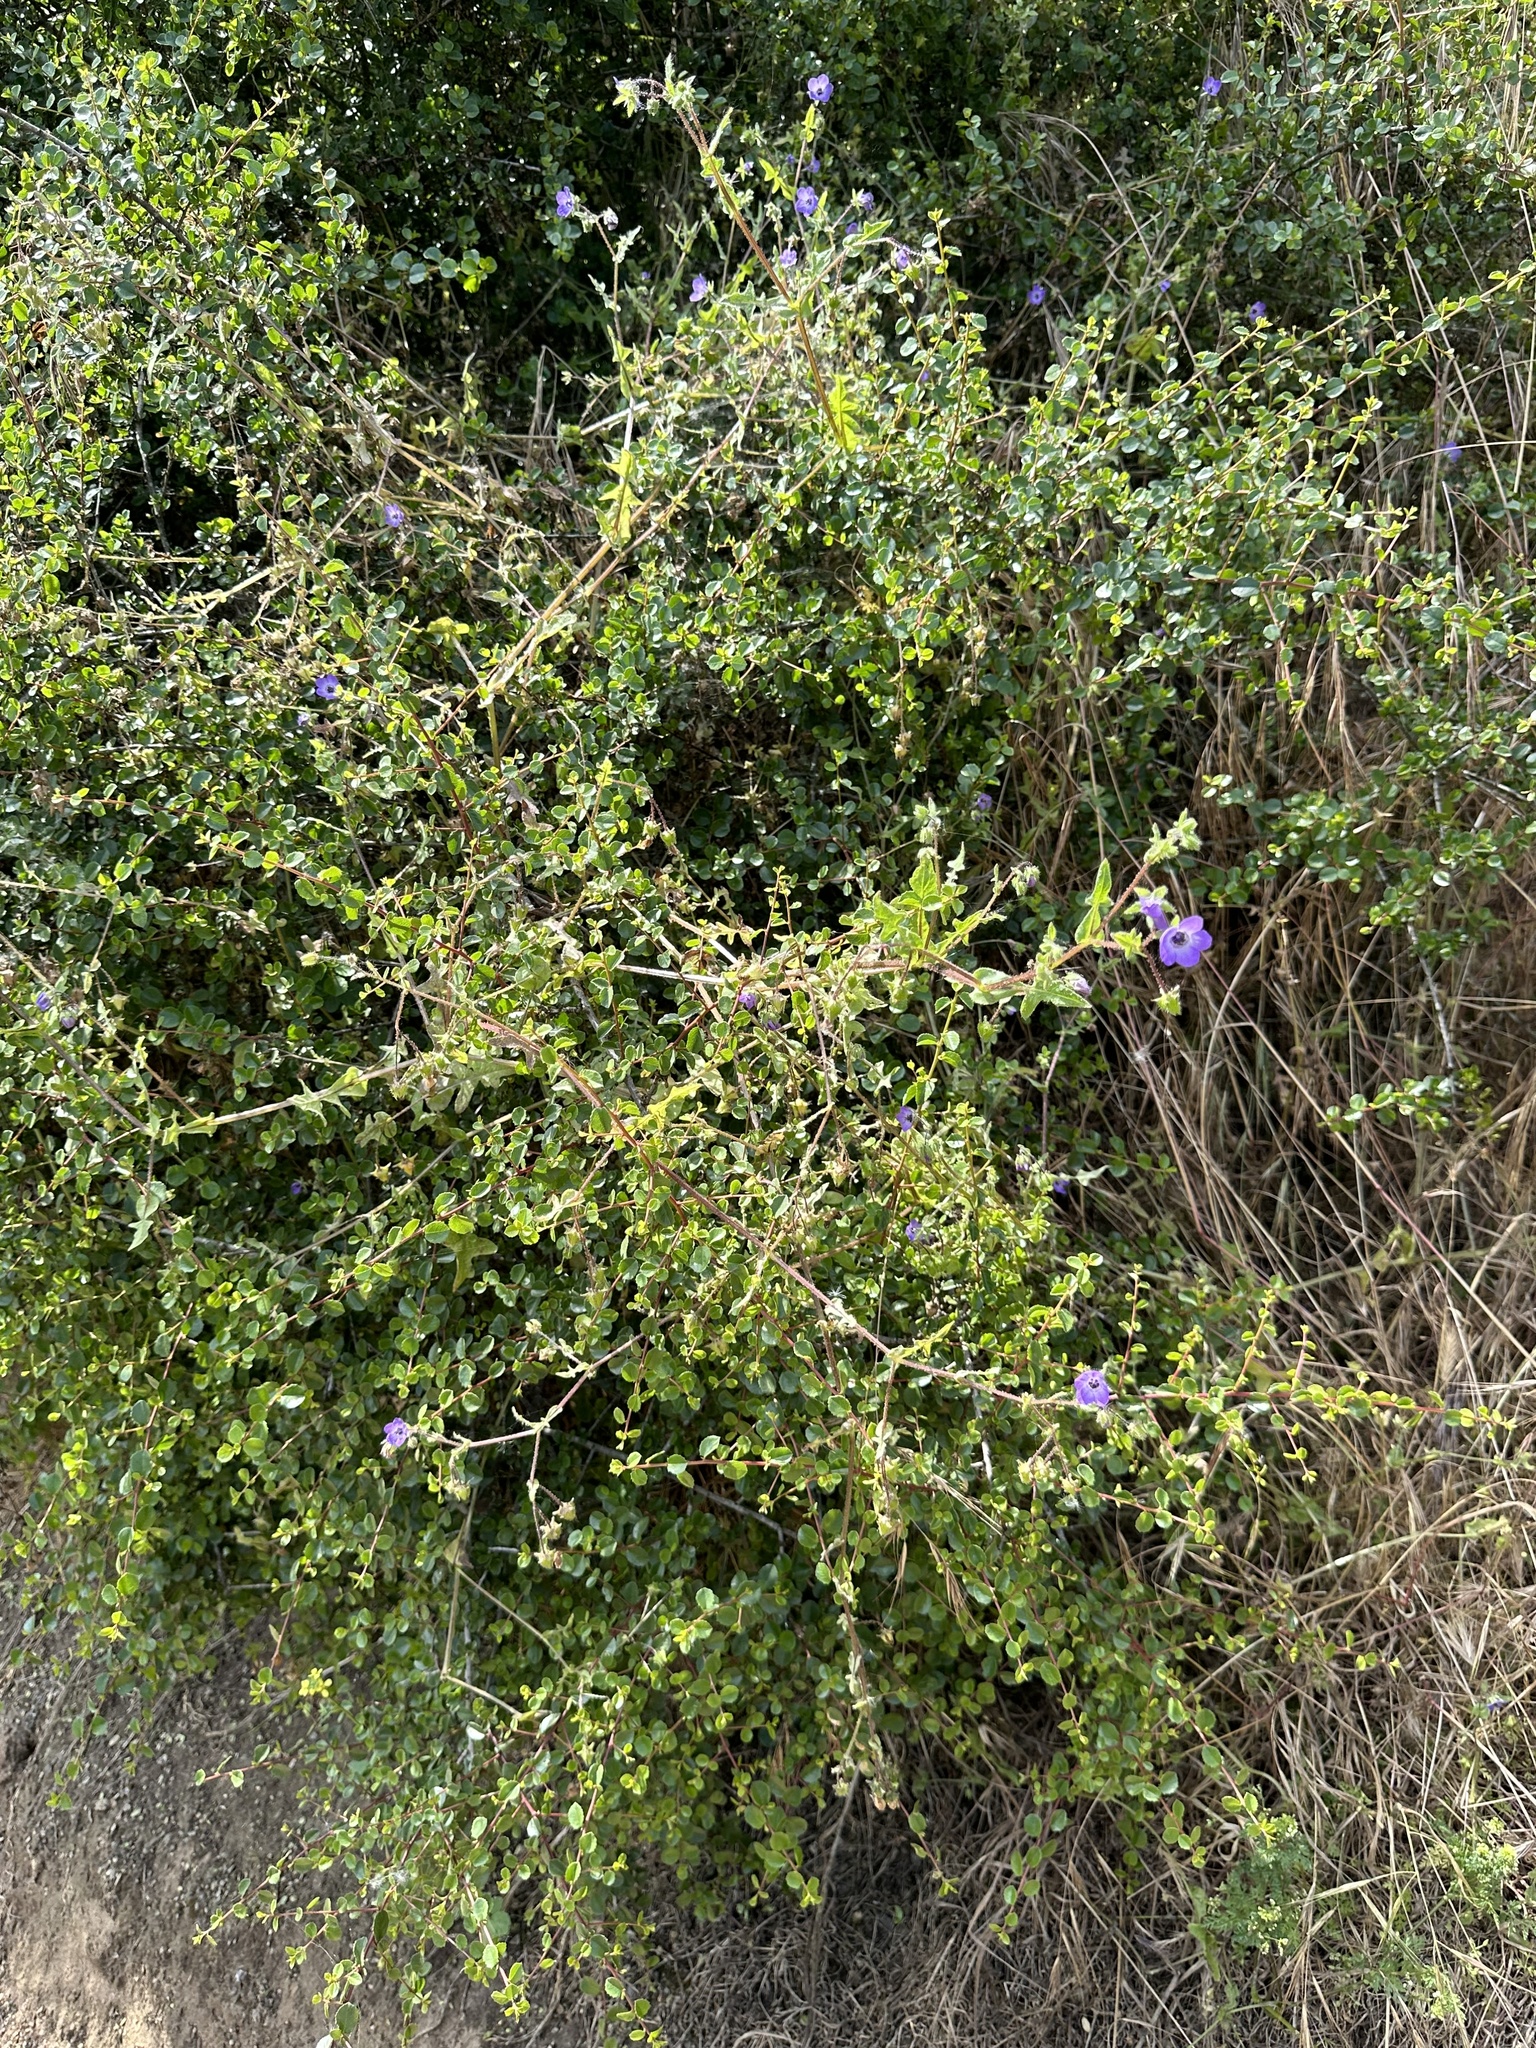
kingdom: Plantae
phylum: Tracheophyta
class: Magnoliopsida
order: Boraginales
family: Hydrophyllaceae
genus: Pholistoma
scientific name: Pholistoma auritum
